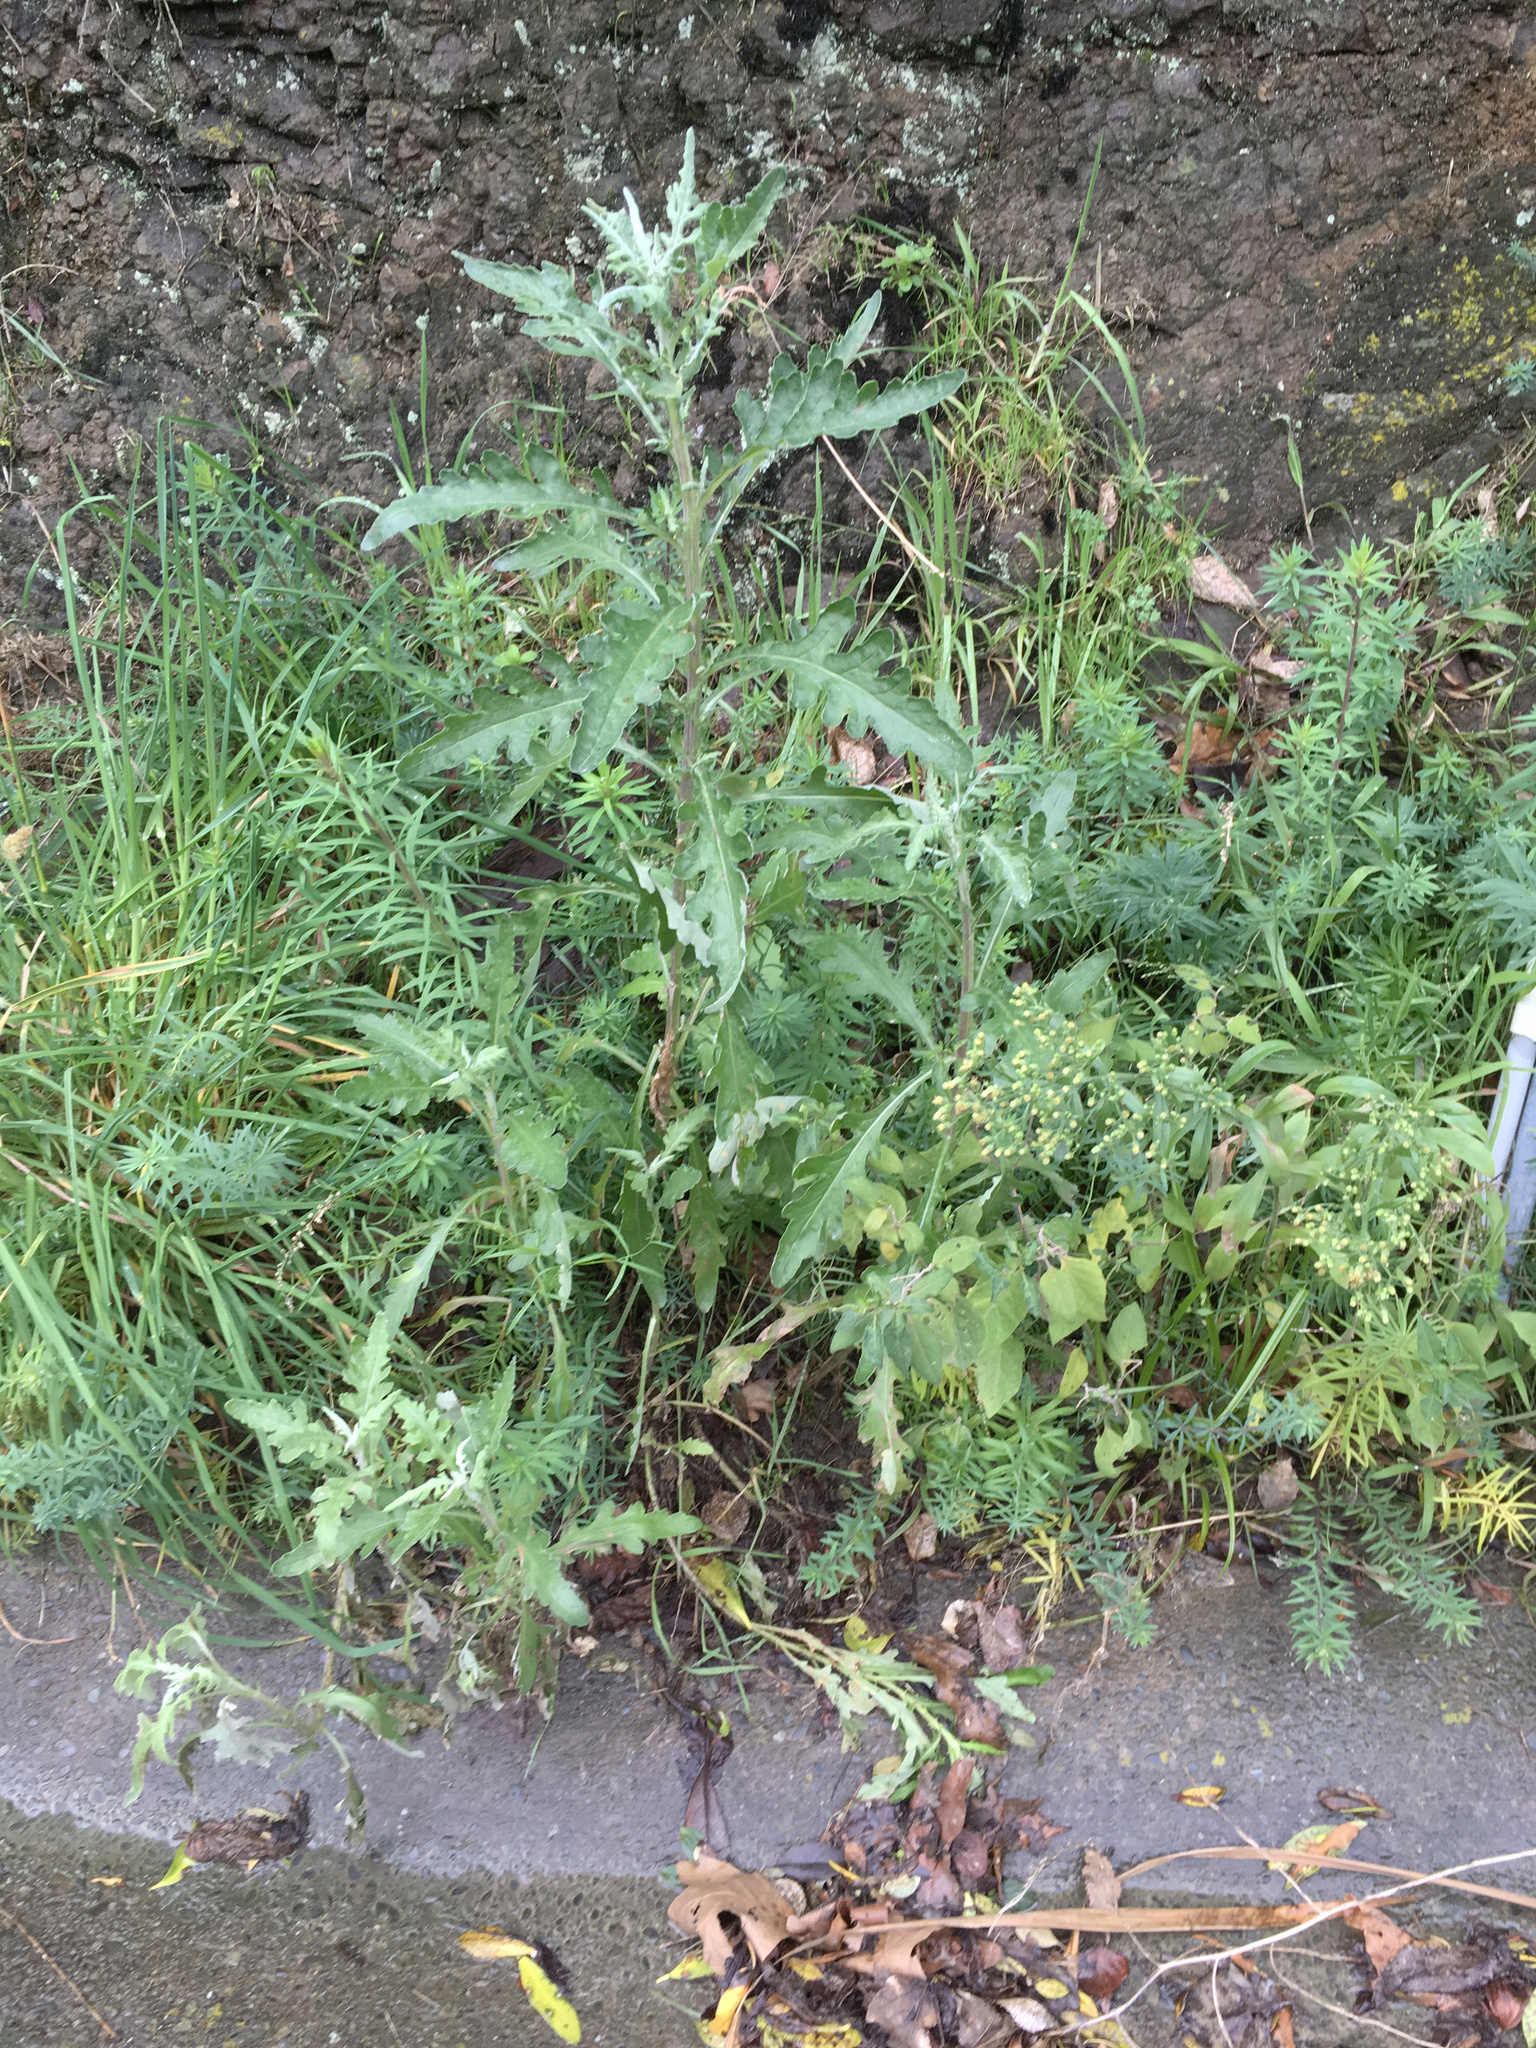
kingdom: Plantae
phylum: Tracheophyta
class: Magnoliopsida
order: Asterales
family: Asteraceae
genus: Senecio
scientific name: Senecio glomeratus
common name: Cutleaf burnweed
